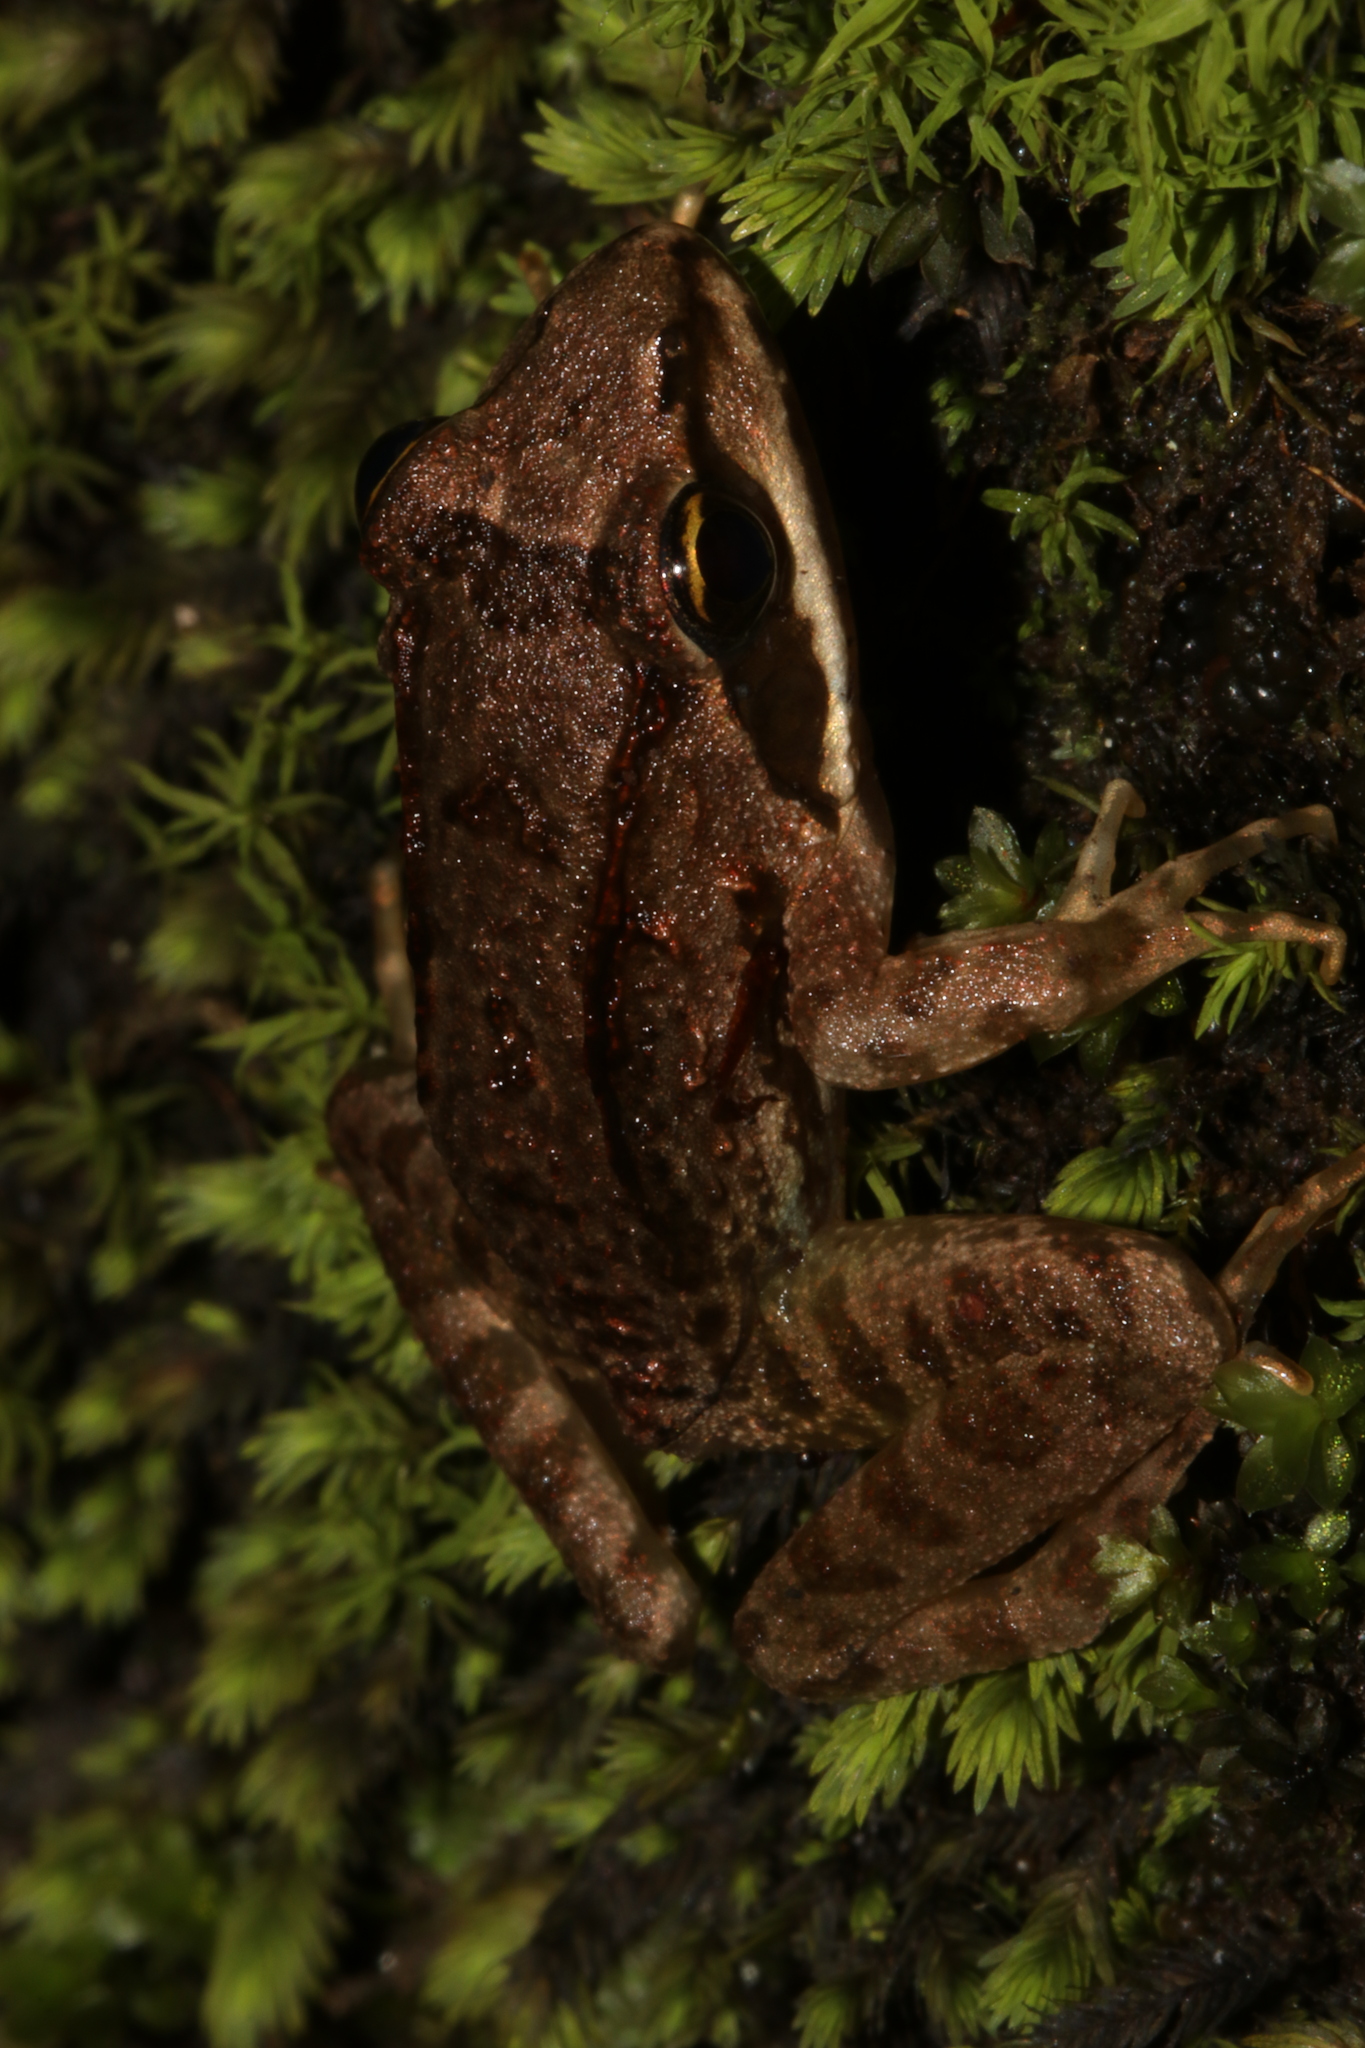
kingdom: Animalia
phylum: Chordata
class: Amphibia
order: Anura
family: Pyxicephalidae
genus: Amietia
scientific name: Amietia tenuoplicata
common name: River frog
